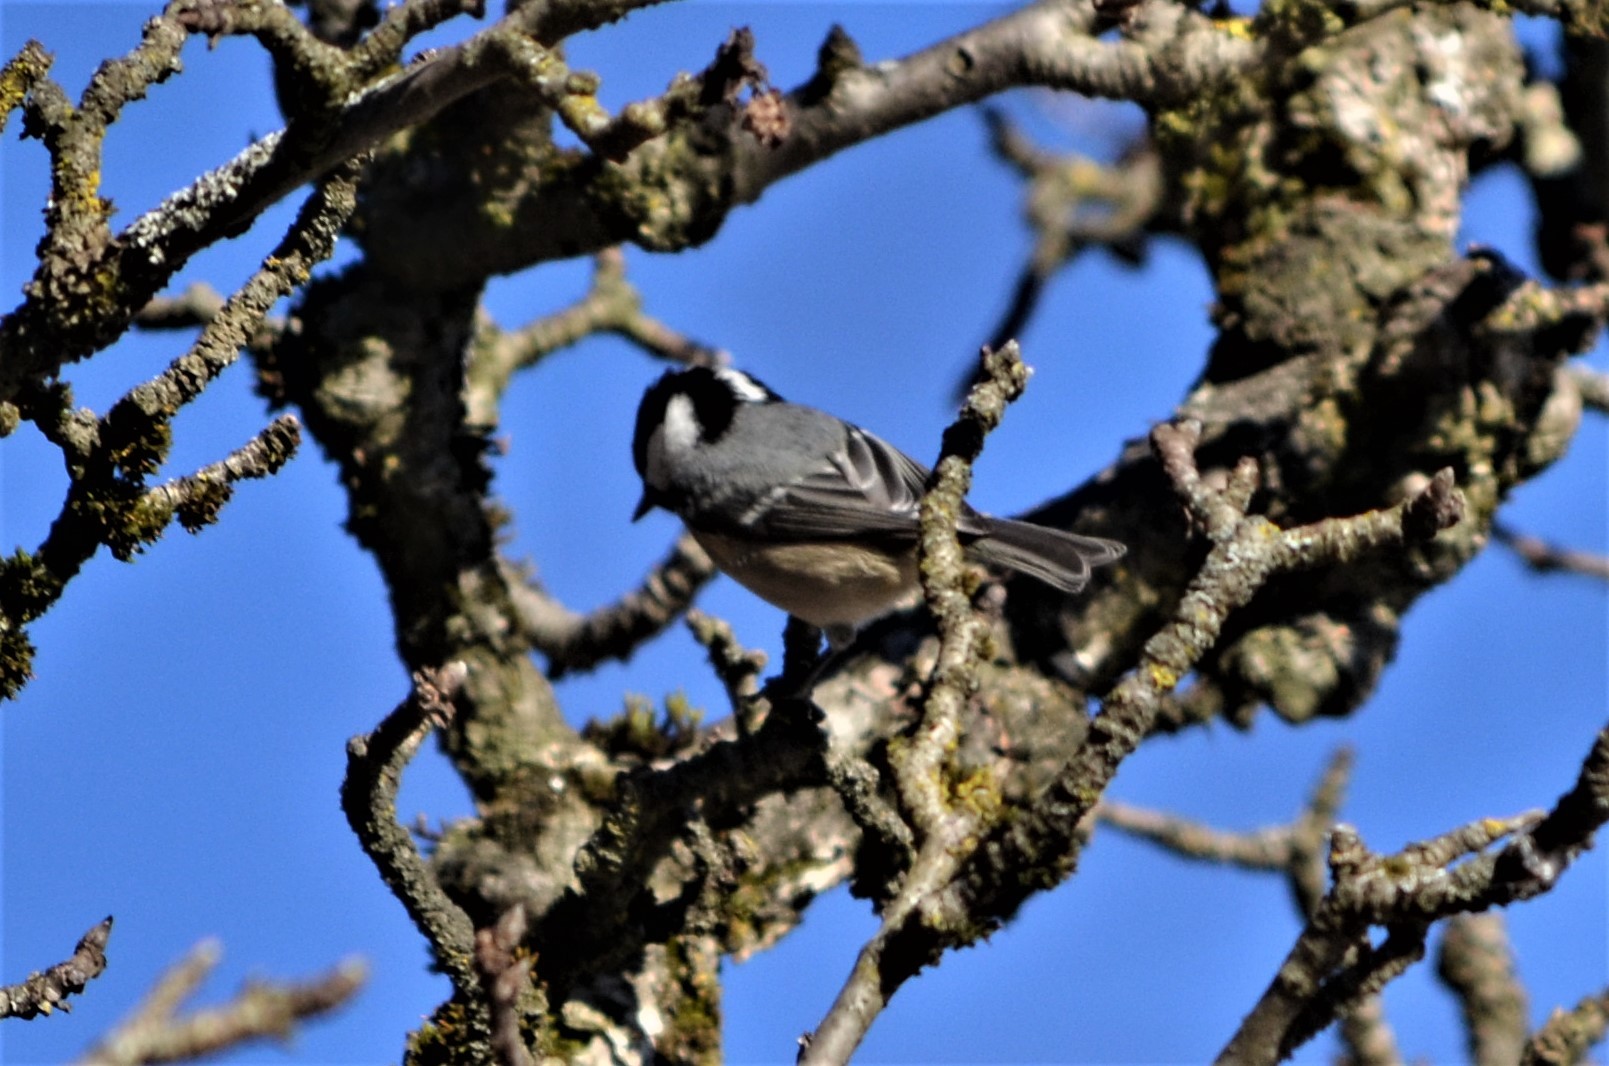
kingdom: Animalia
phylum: Chordata
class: Aves
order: Passeriformes
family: Paridae
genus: Periparus
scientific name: Periparus ater
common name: Coal tit
